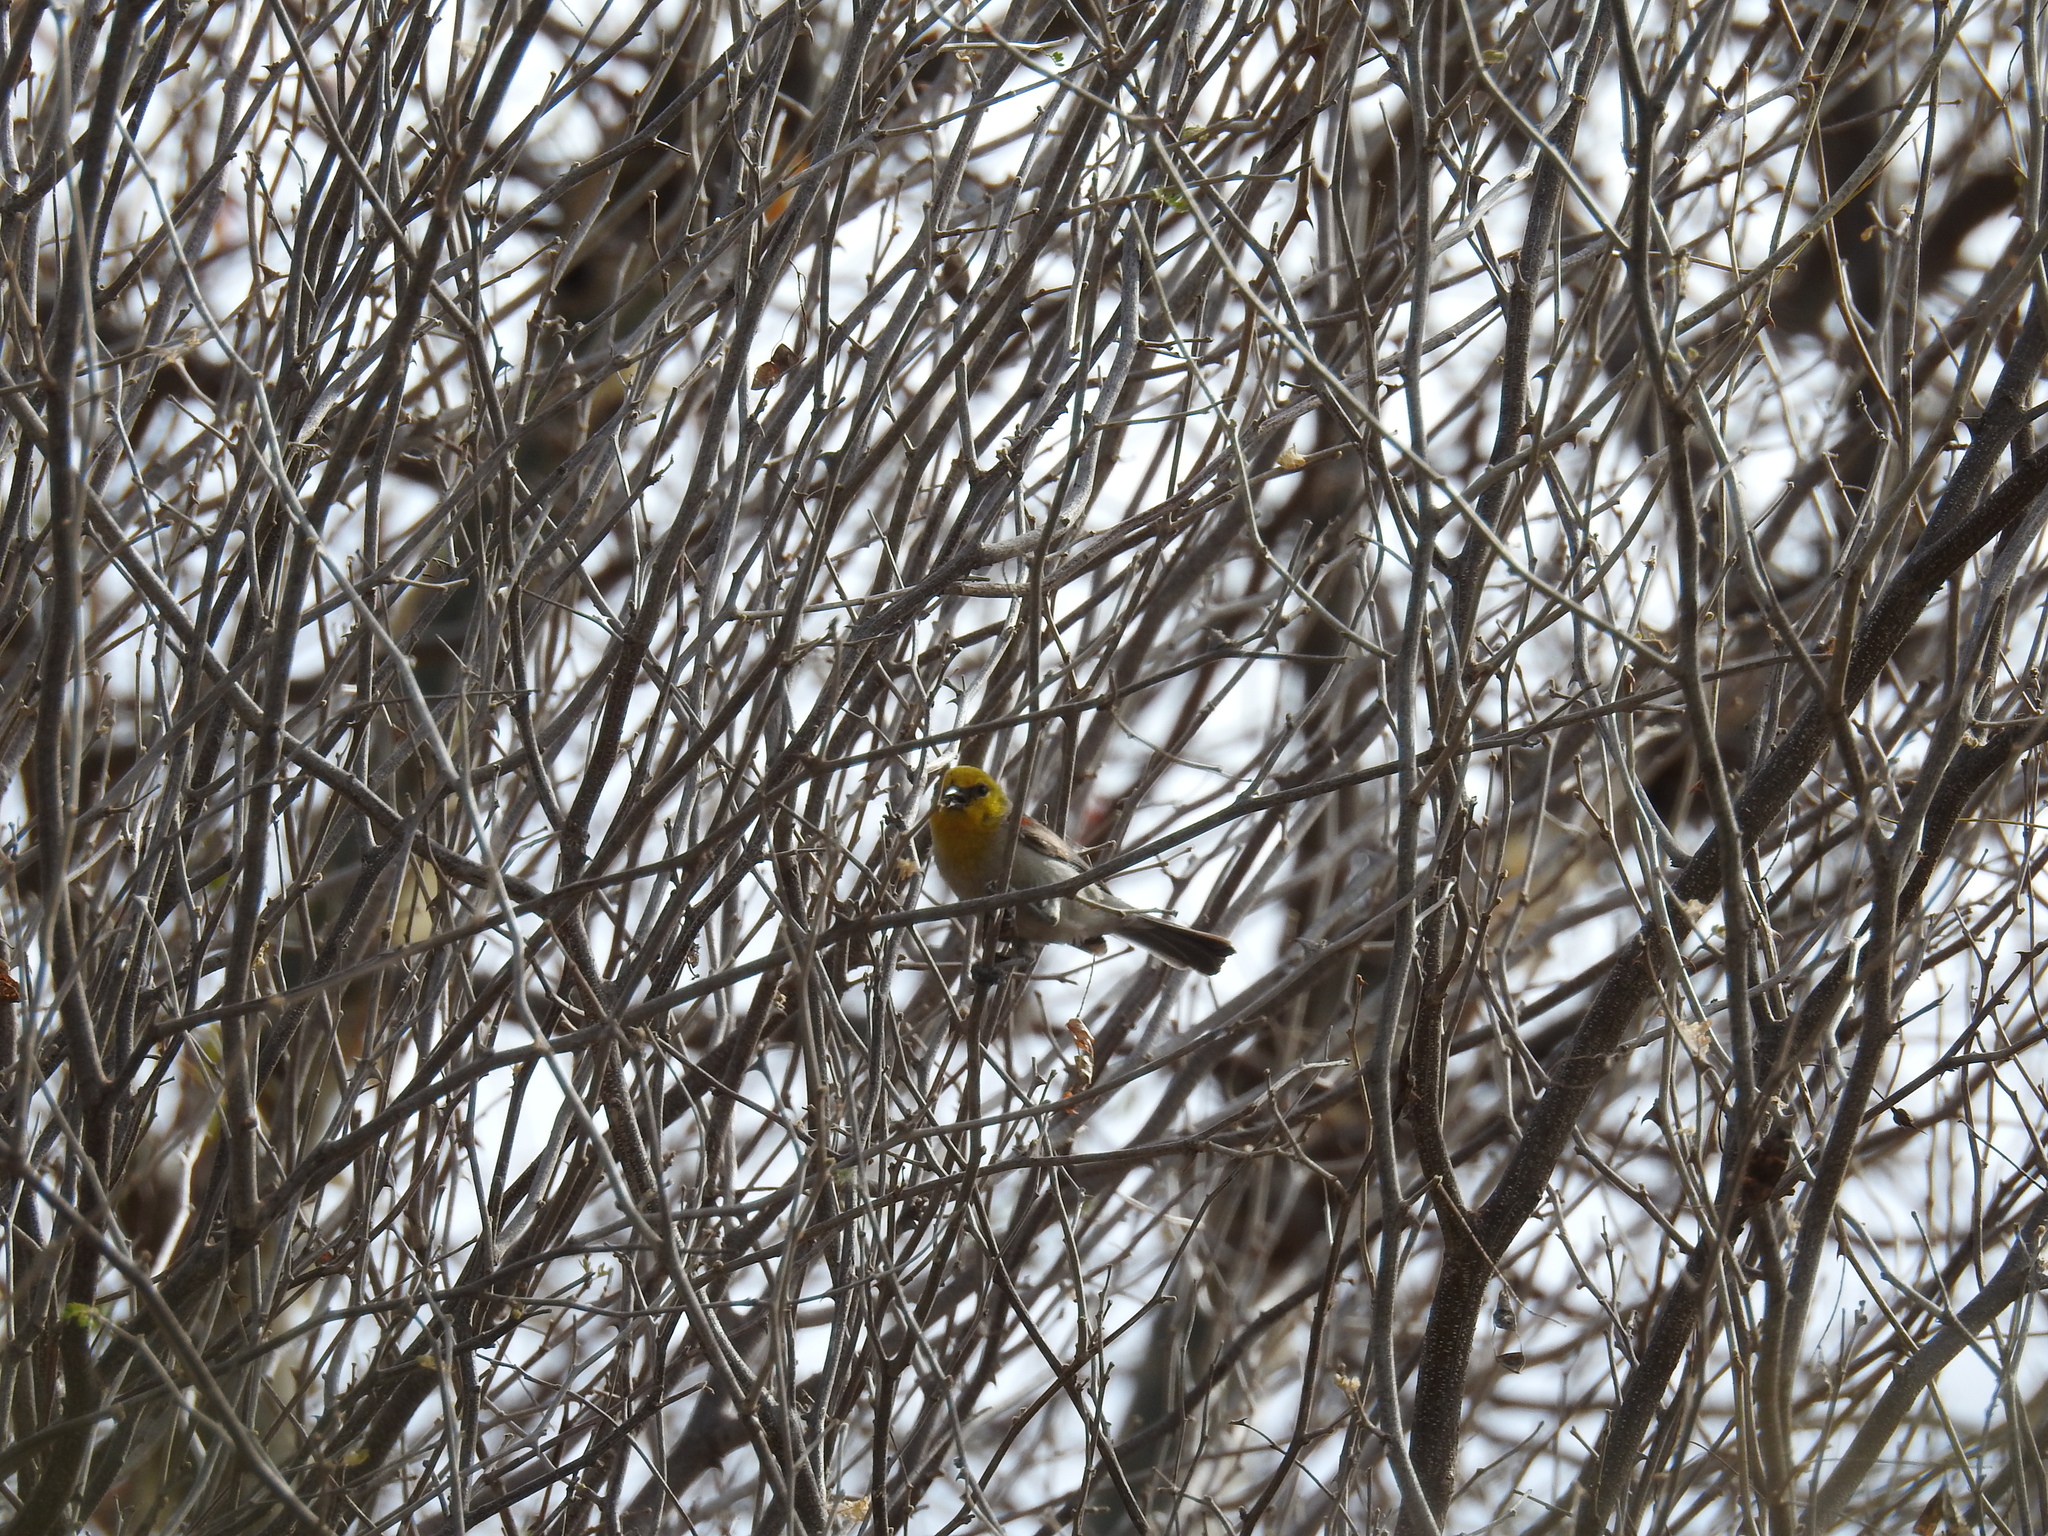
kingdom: Animalia
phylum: Chordata
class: Aves
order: Passeriformes
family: Remizidae
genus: Auriparus
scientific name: Auriparus flaviceps
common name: Verdin
